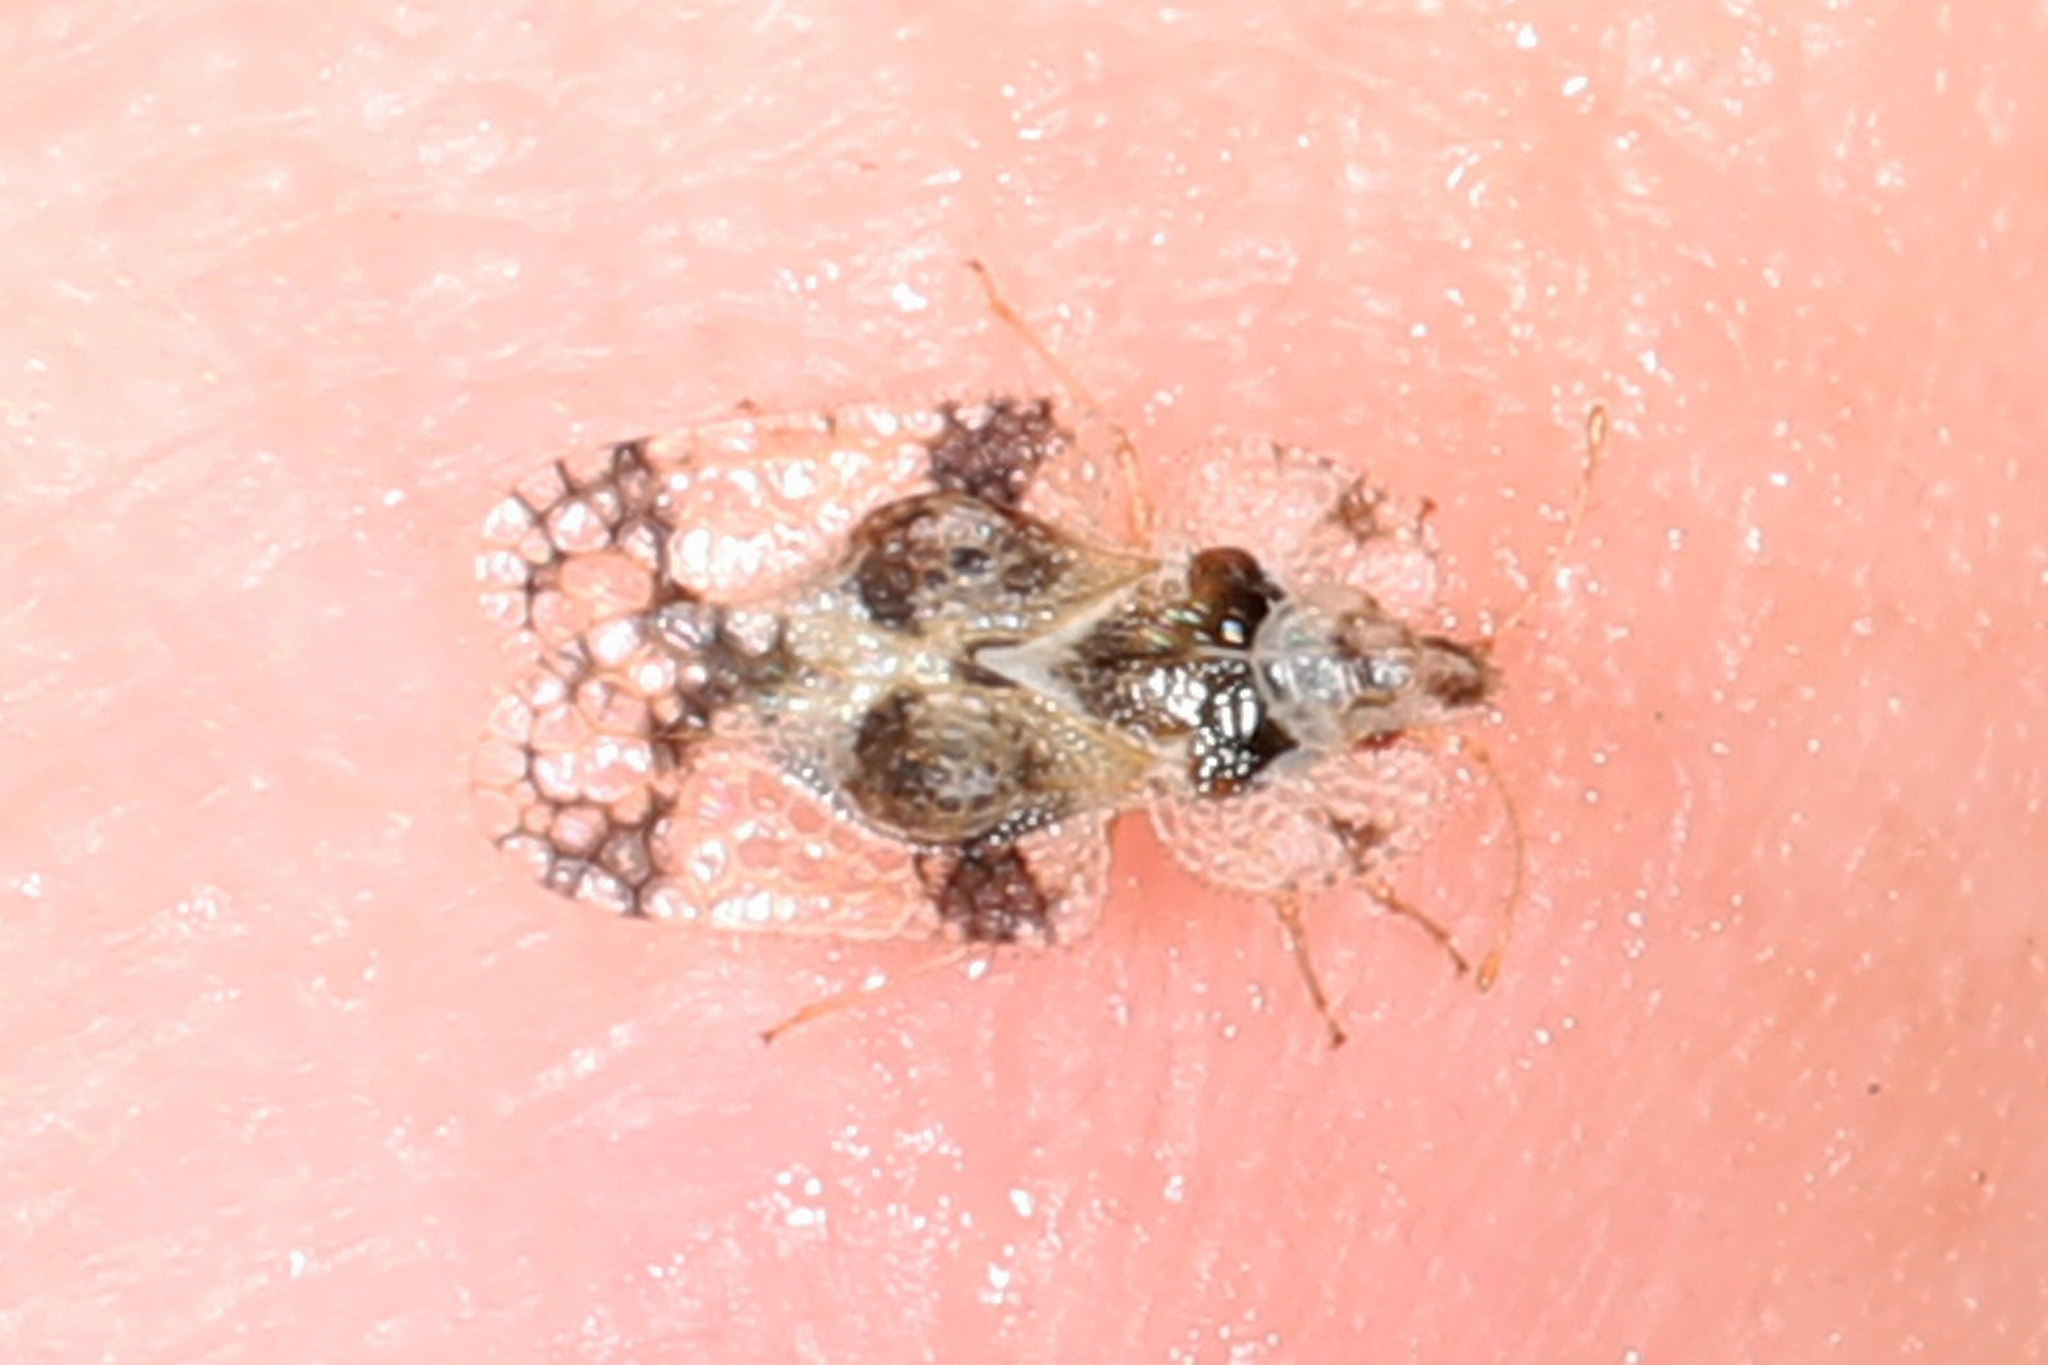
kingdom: Animalia
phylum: Arthropoda
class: Insecta
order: Hemiptera
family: Tingidae
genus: Corythucha
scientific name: Corythucha arcuata
